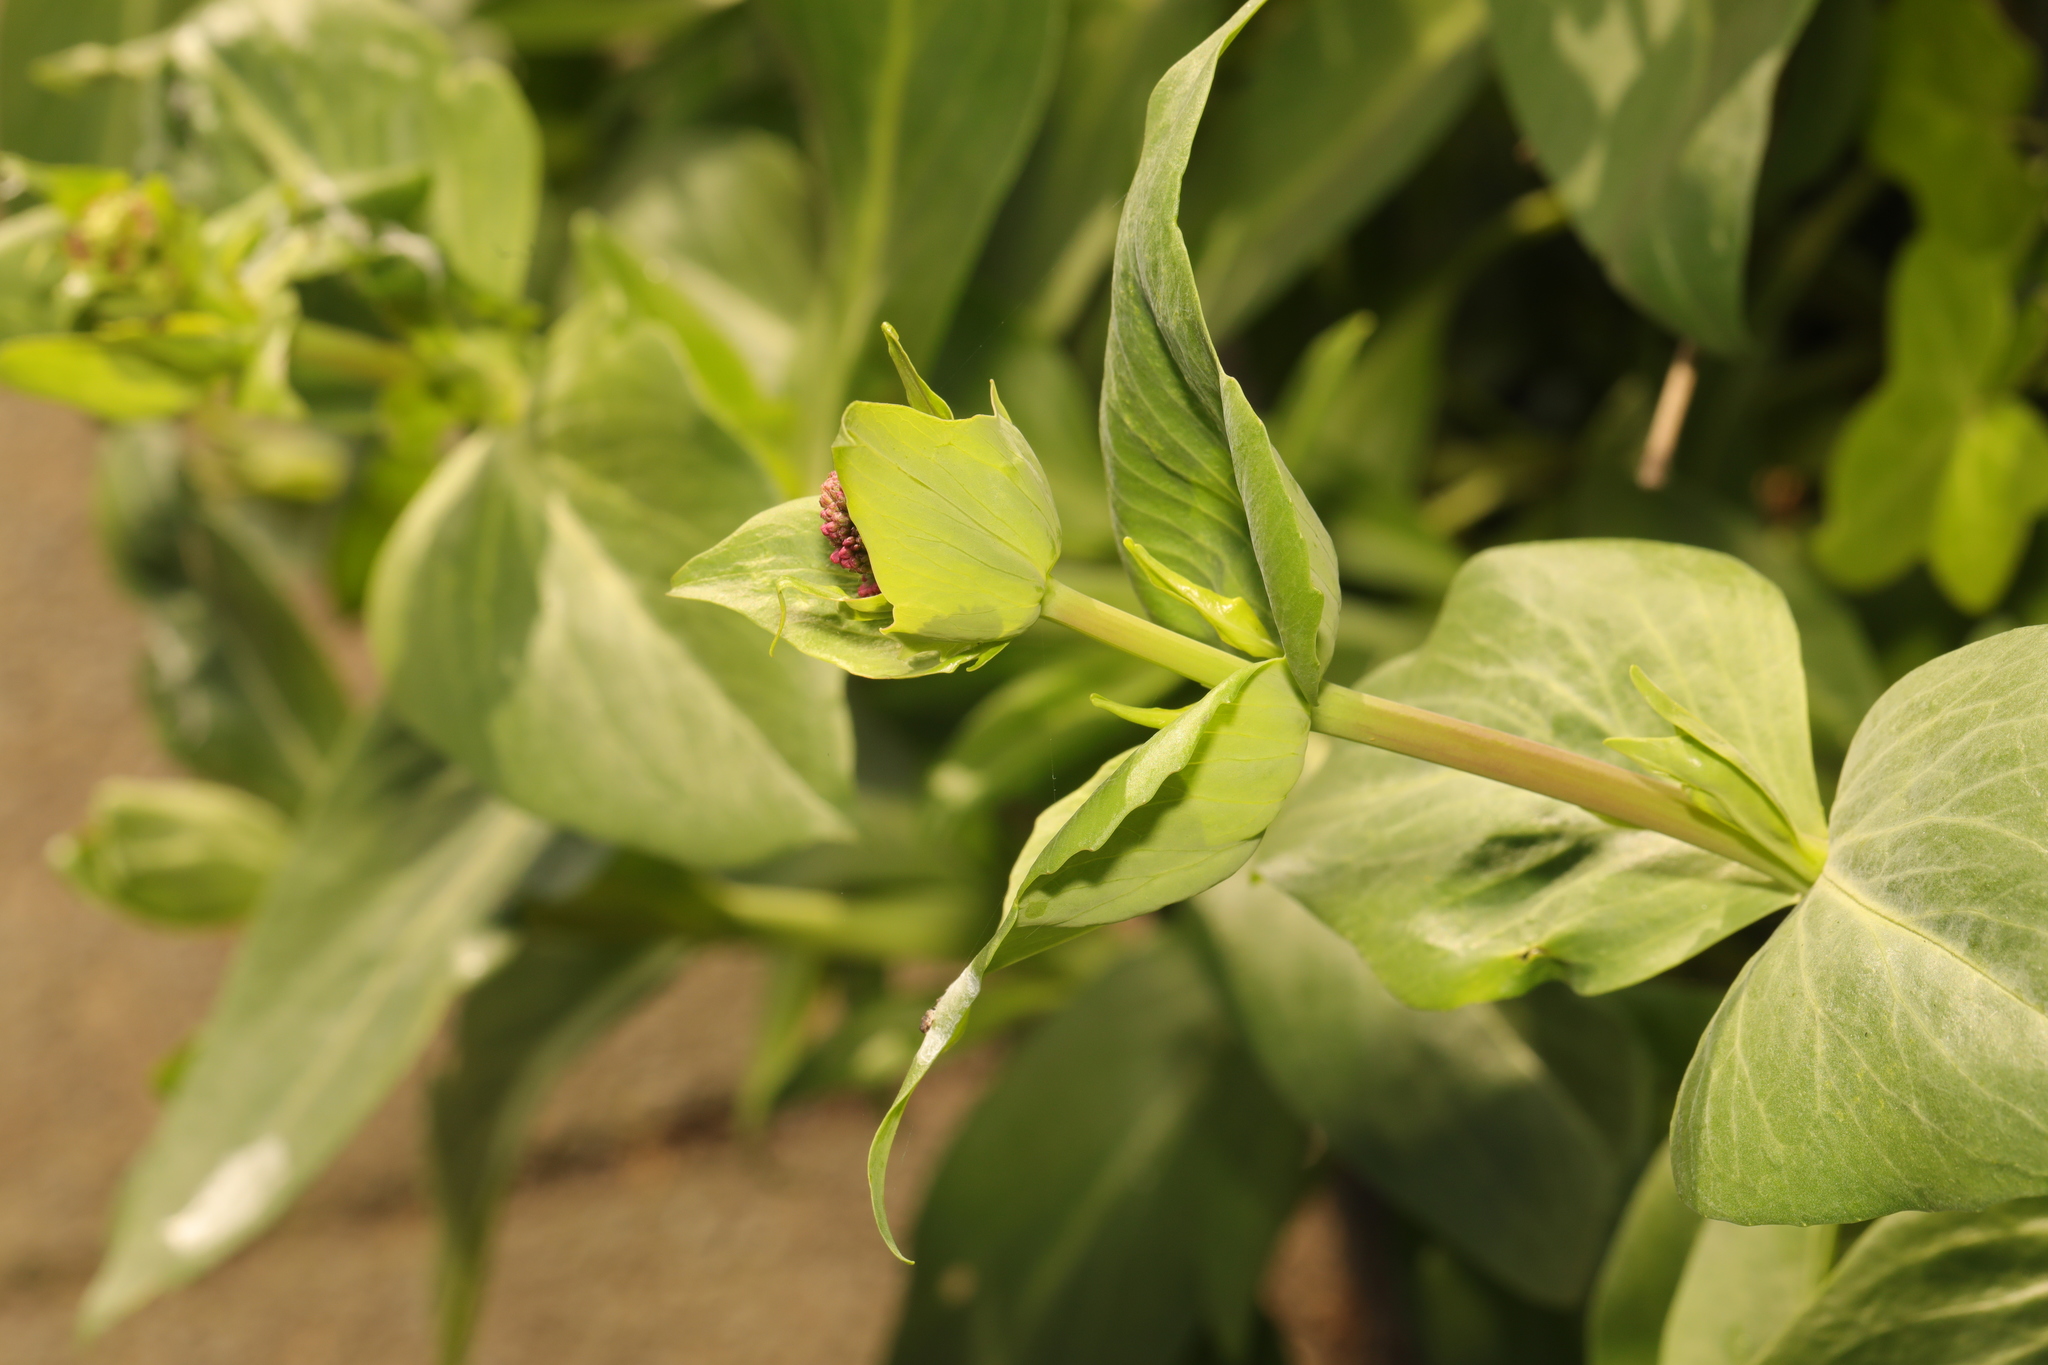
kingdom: Plantae
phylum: Tracheophyta
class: Magnoliopsida
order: Dipsacales
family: Caprifoliaceae
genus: Centranthus
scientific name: Centranthus ruber
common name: Red valerian
